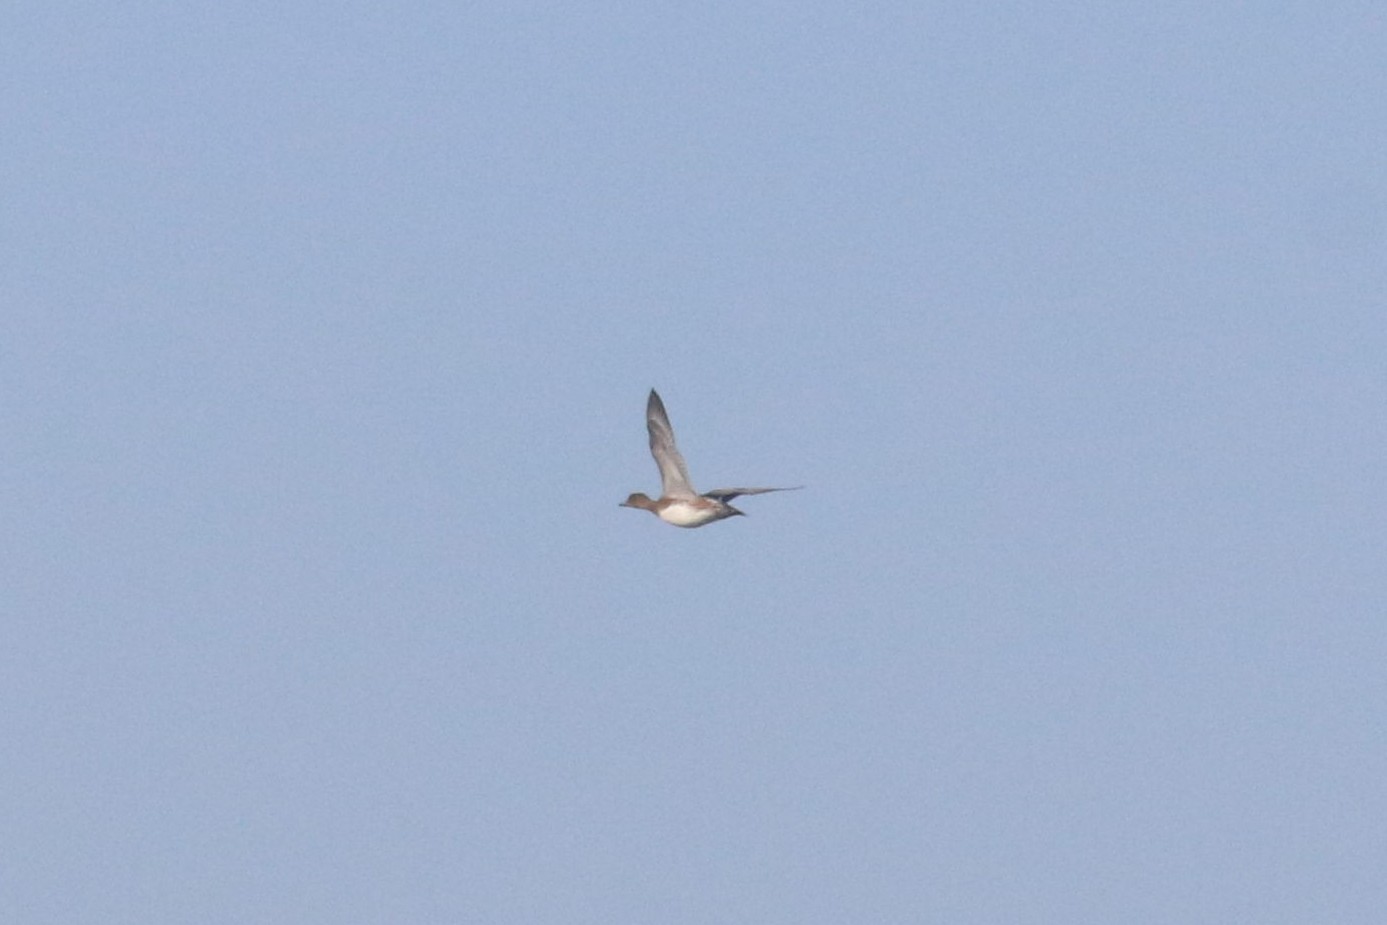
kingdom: Animalia
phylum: Chordata
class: Aves
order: Anseriformes
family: Anatidae
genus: Mareca
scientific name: Mareca penelope
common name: Eurasian wigeon
